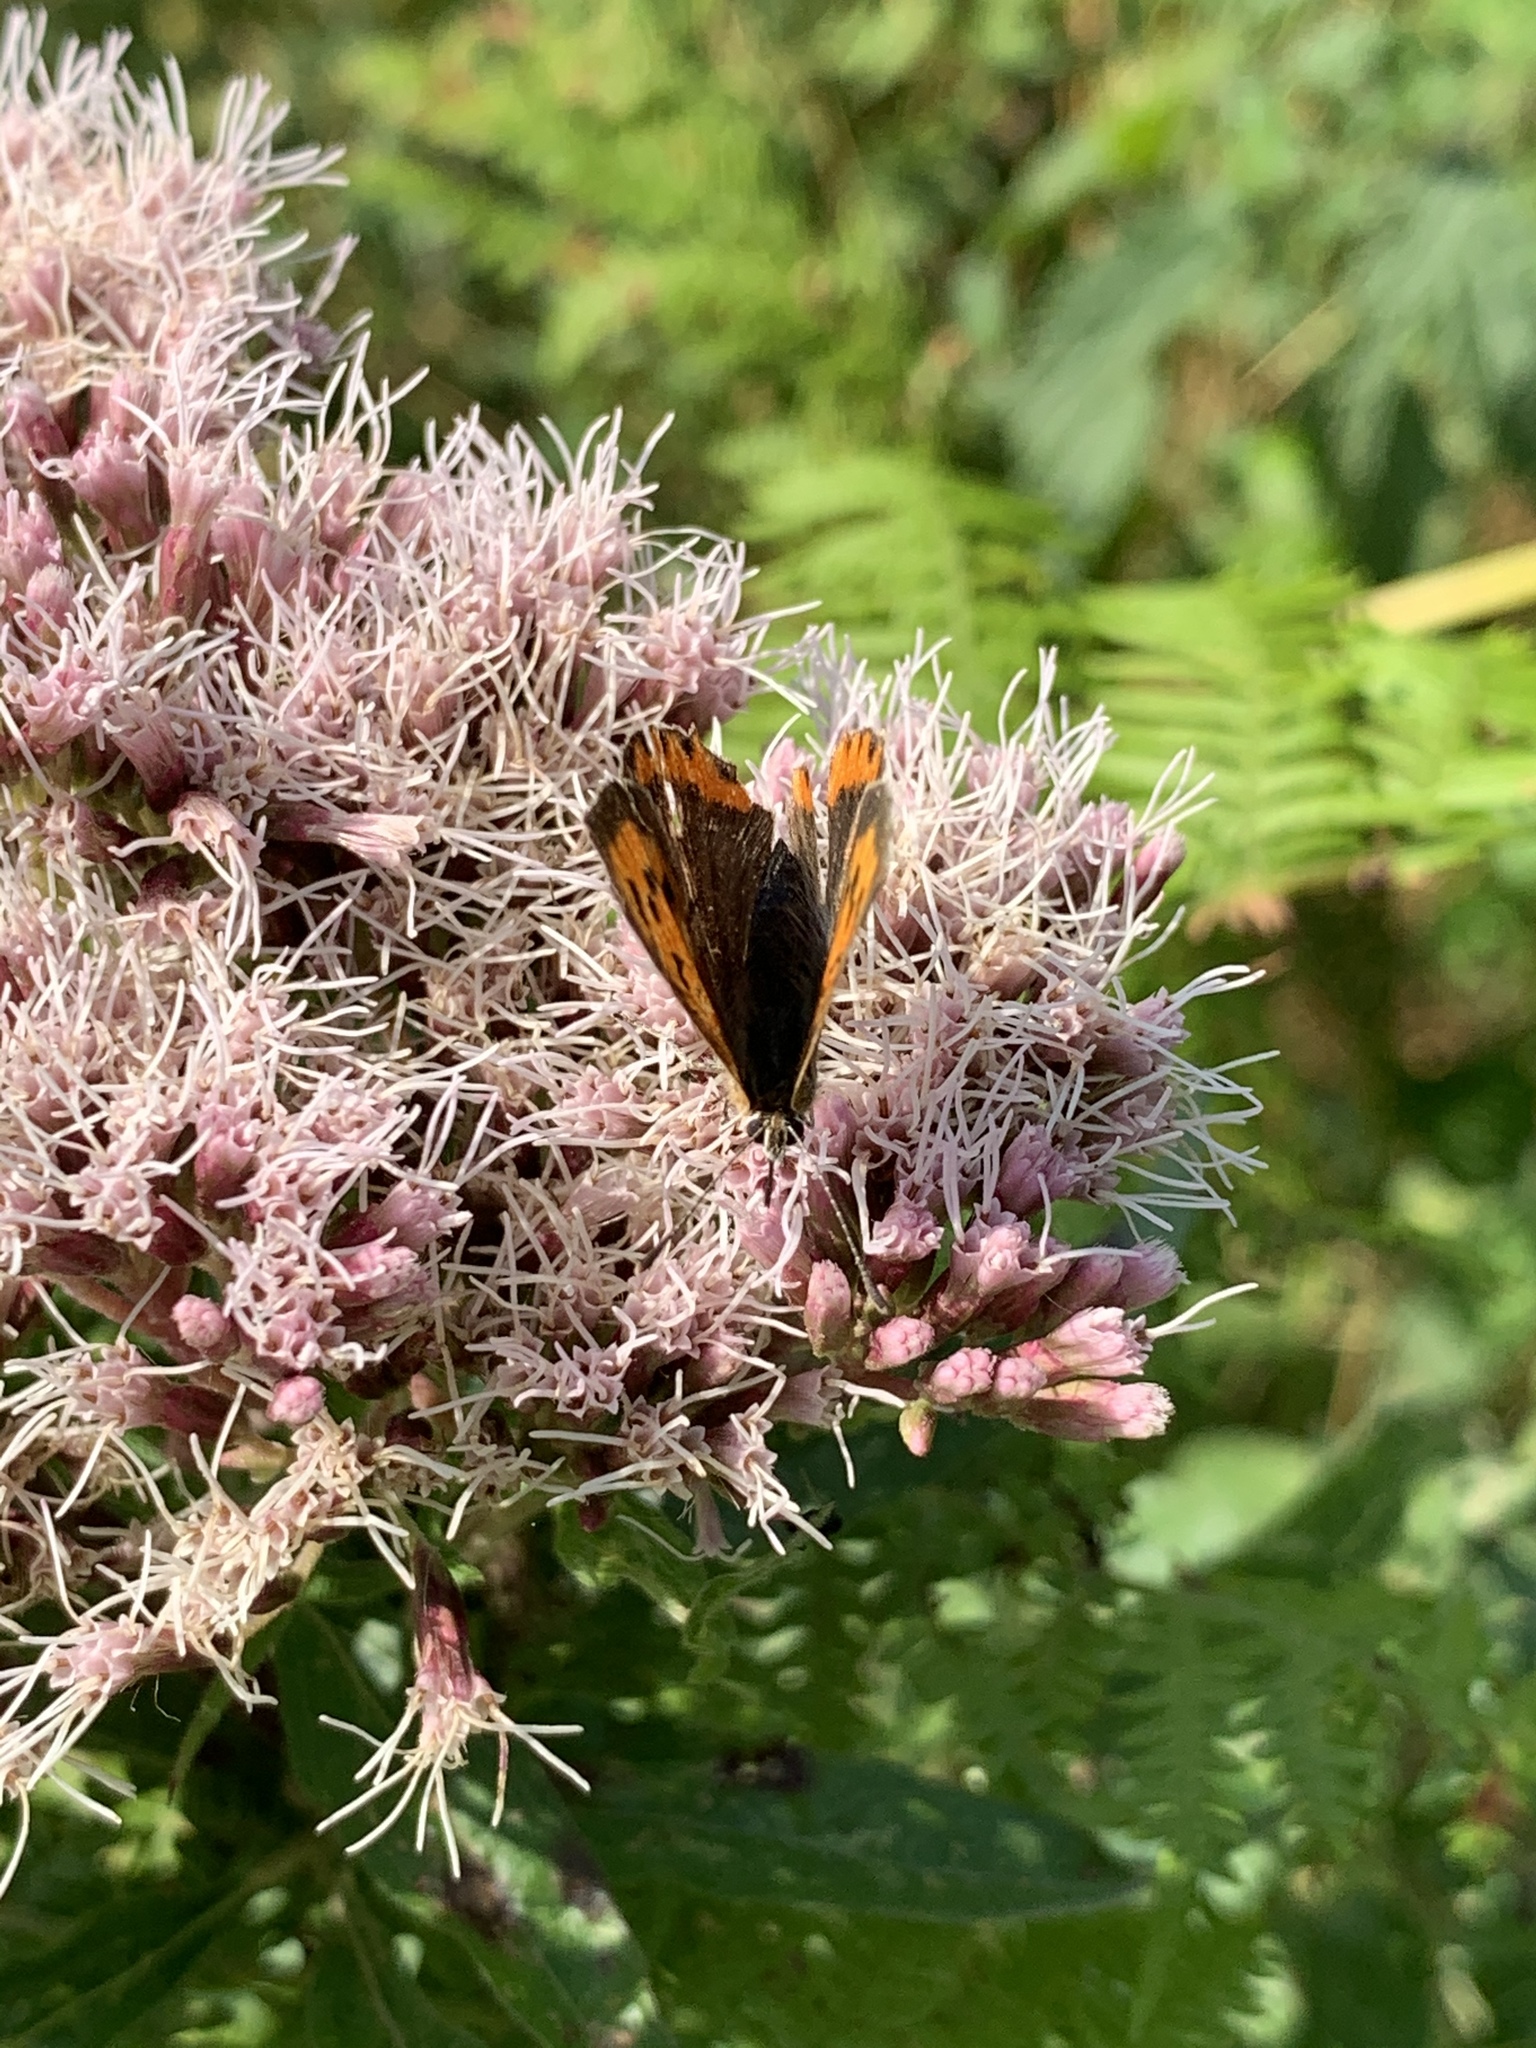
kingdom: Animalia
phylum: Arthropoda
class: Insecta
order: Lepidoptera
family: Lycaenidae
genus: Lycaena
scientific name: Lycaena phlaeas
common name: Small copper
